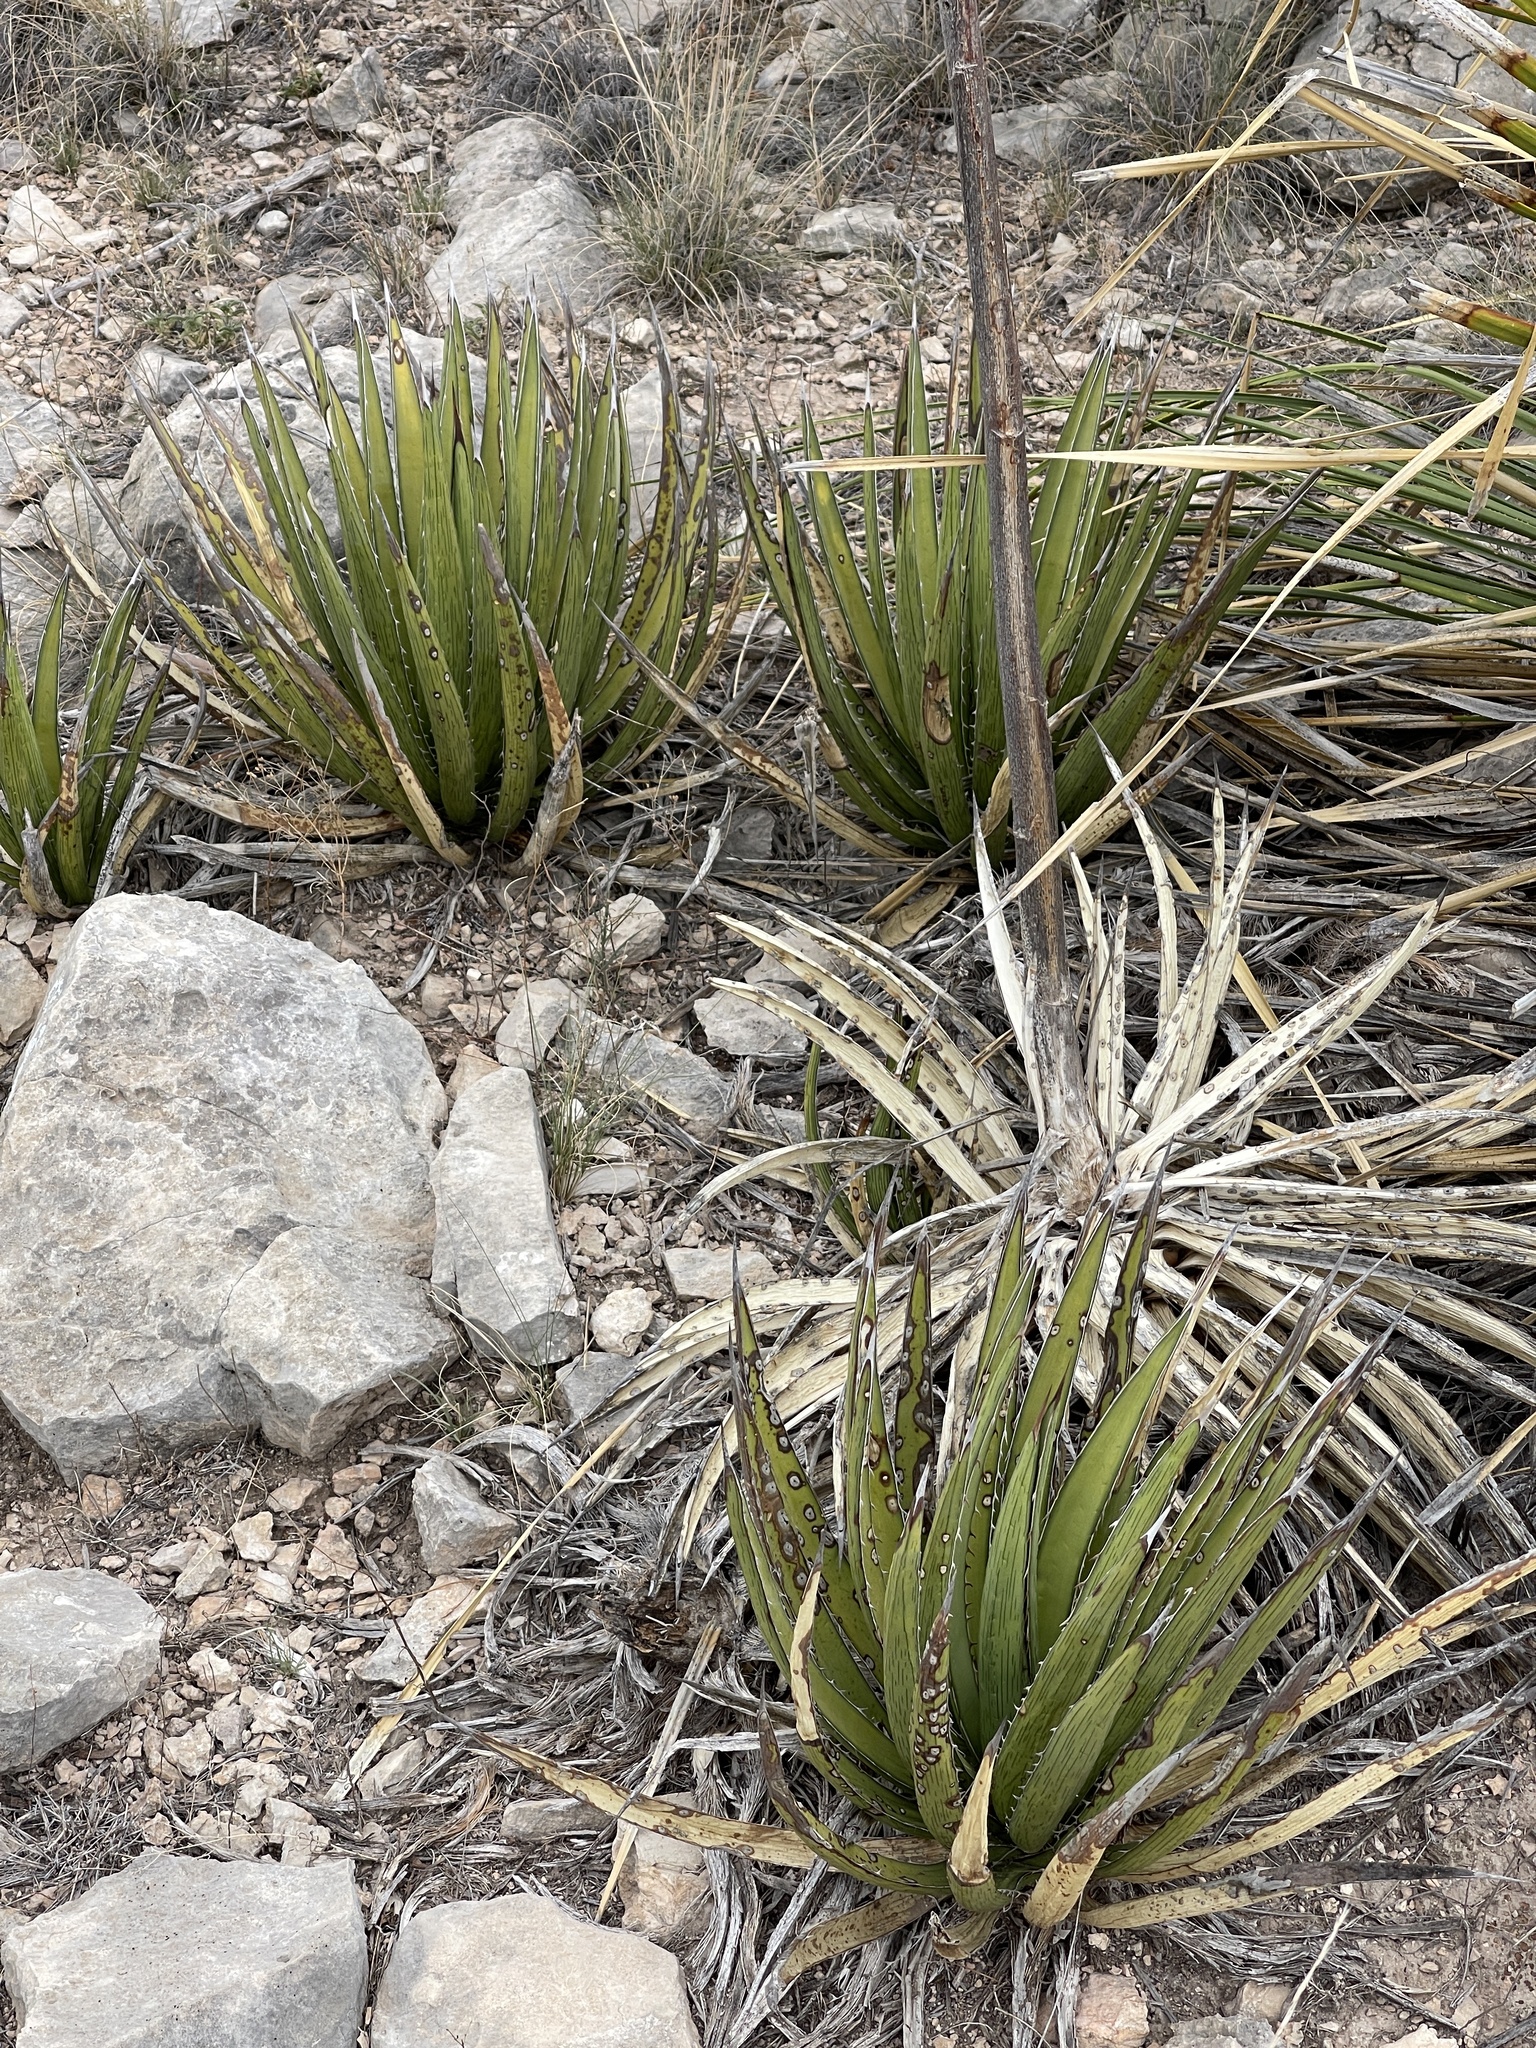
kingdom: Plantae
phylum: Tracheophyta
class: Liliopsida
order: Asparagales
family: Asparagaceae
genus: Agave
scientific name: Agave lechuguilla
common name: Lecheguilla agave
